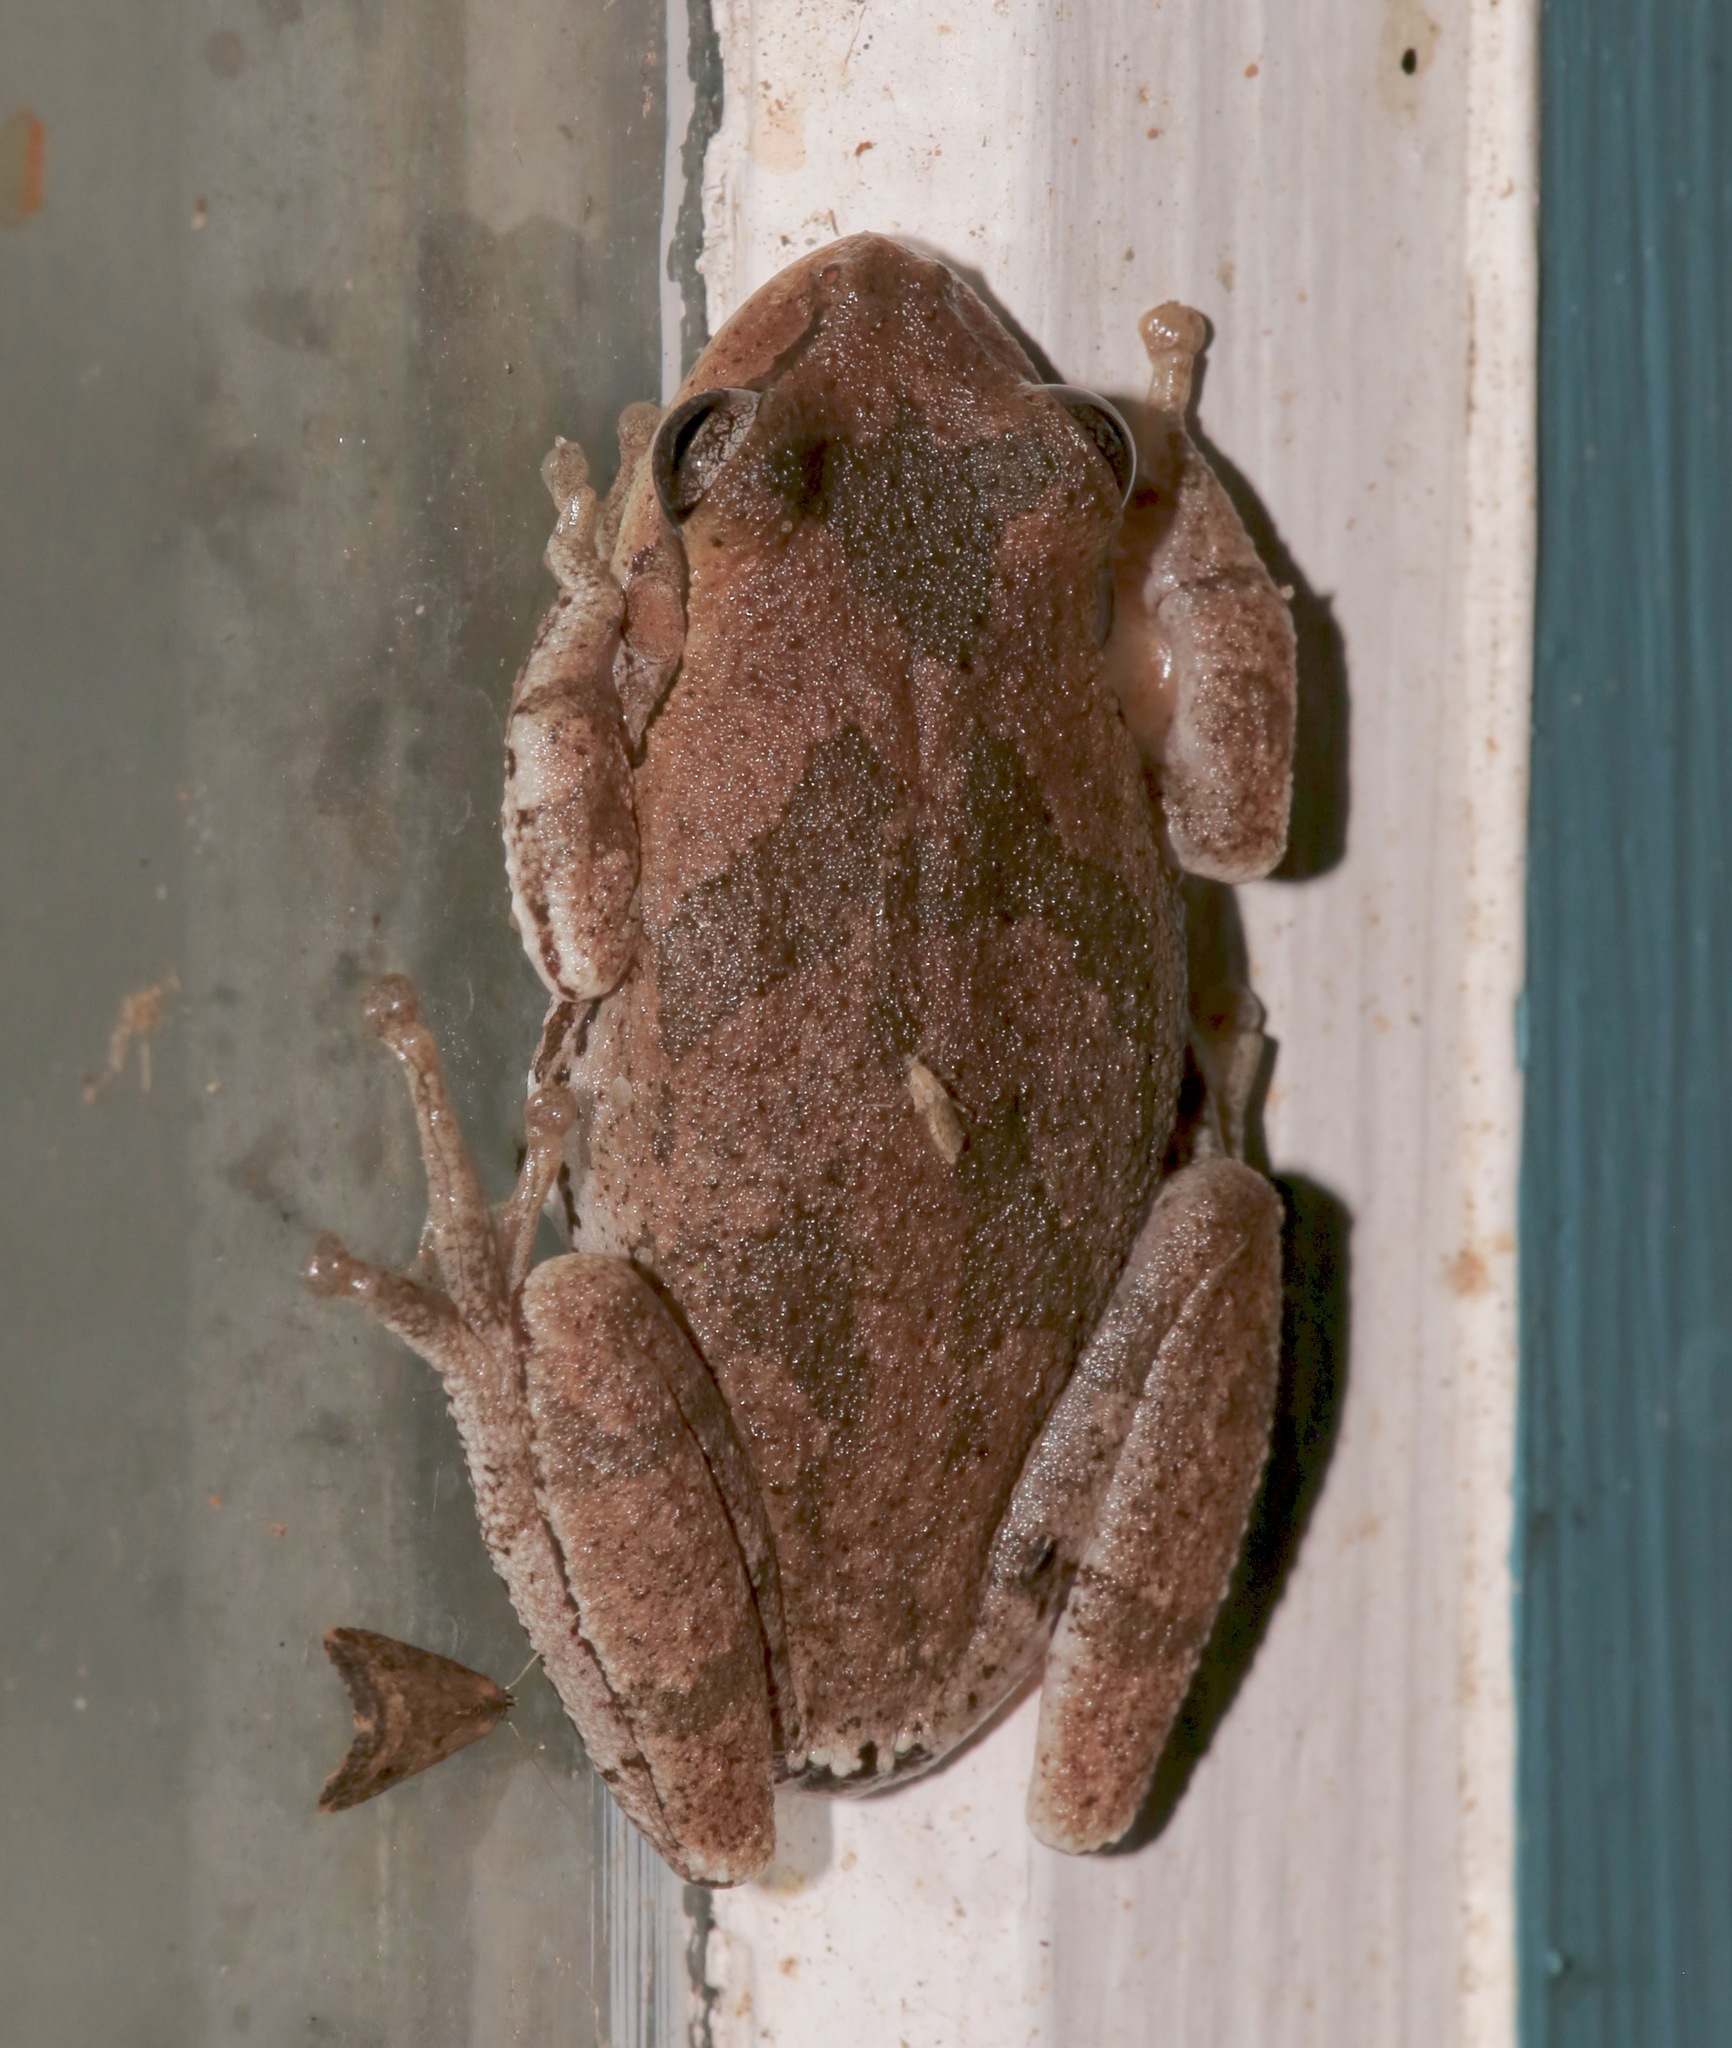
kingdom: Animalia
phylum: Chordata
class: Amphibia
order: Anura
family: Hylidae
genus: Hyla
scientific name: Hyla femoralis
